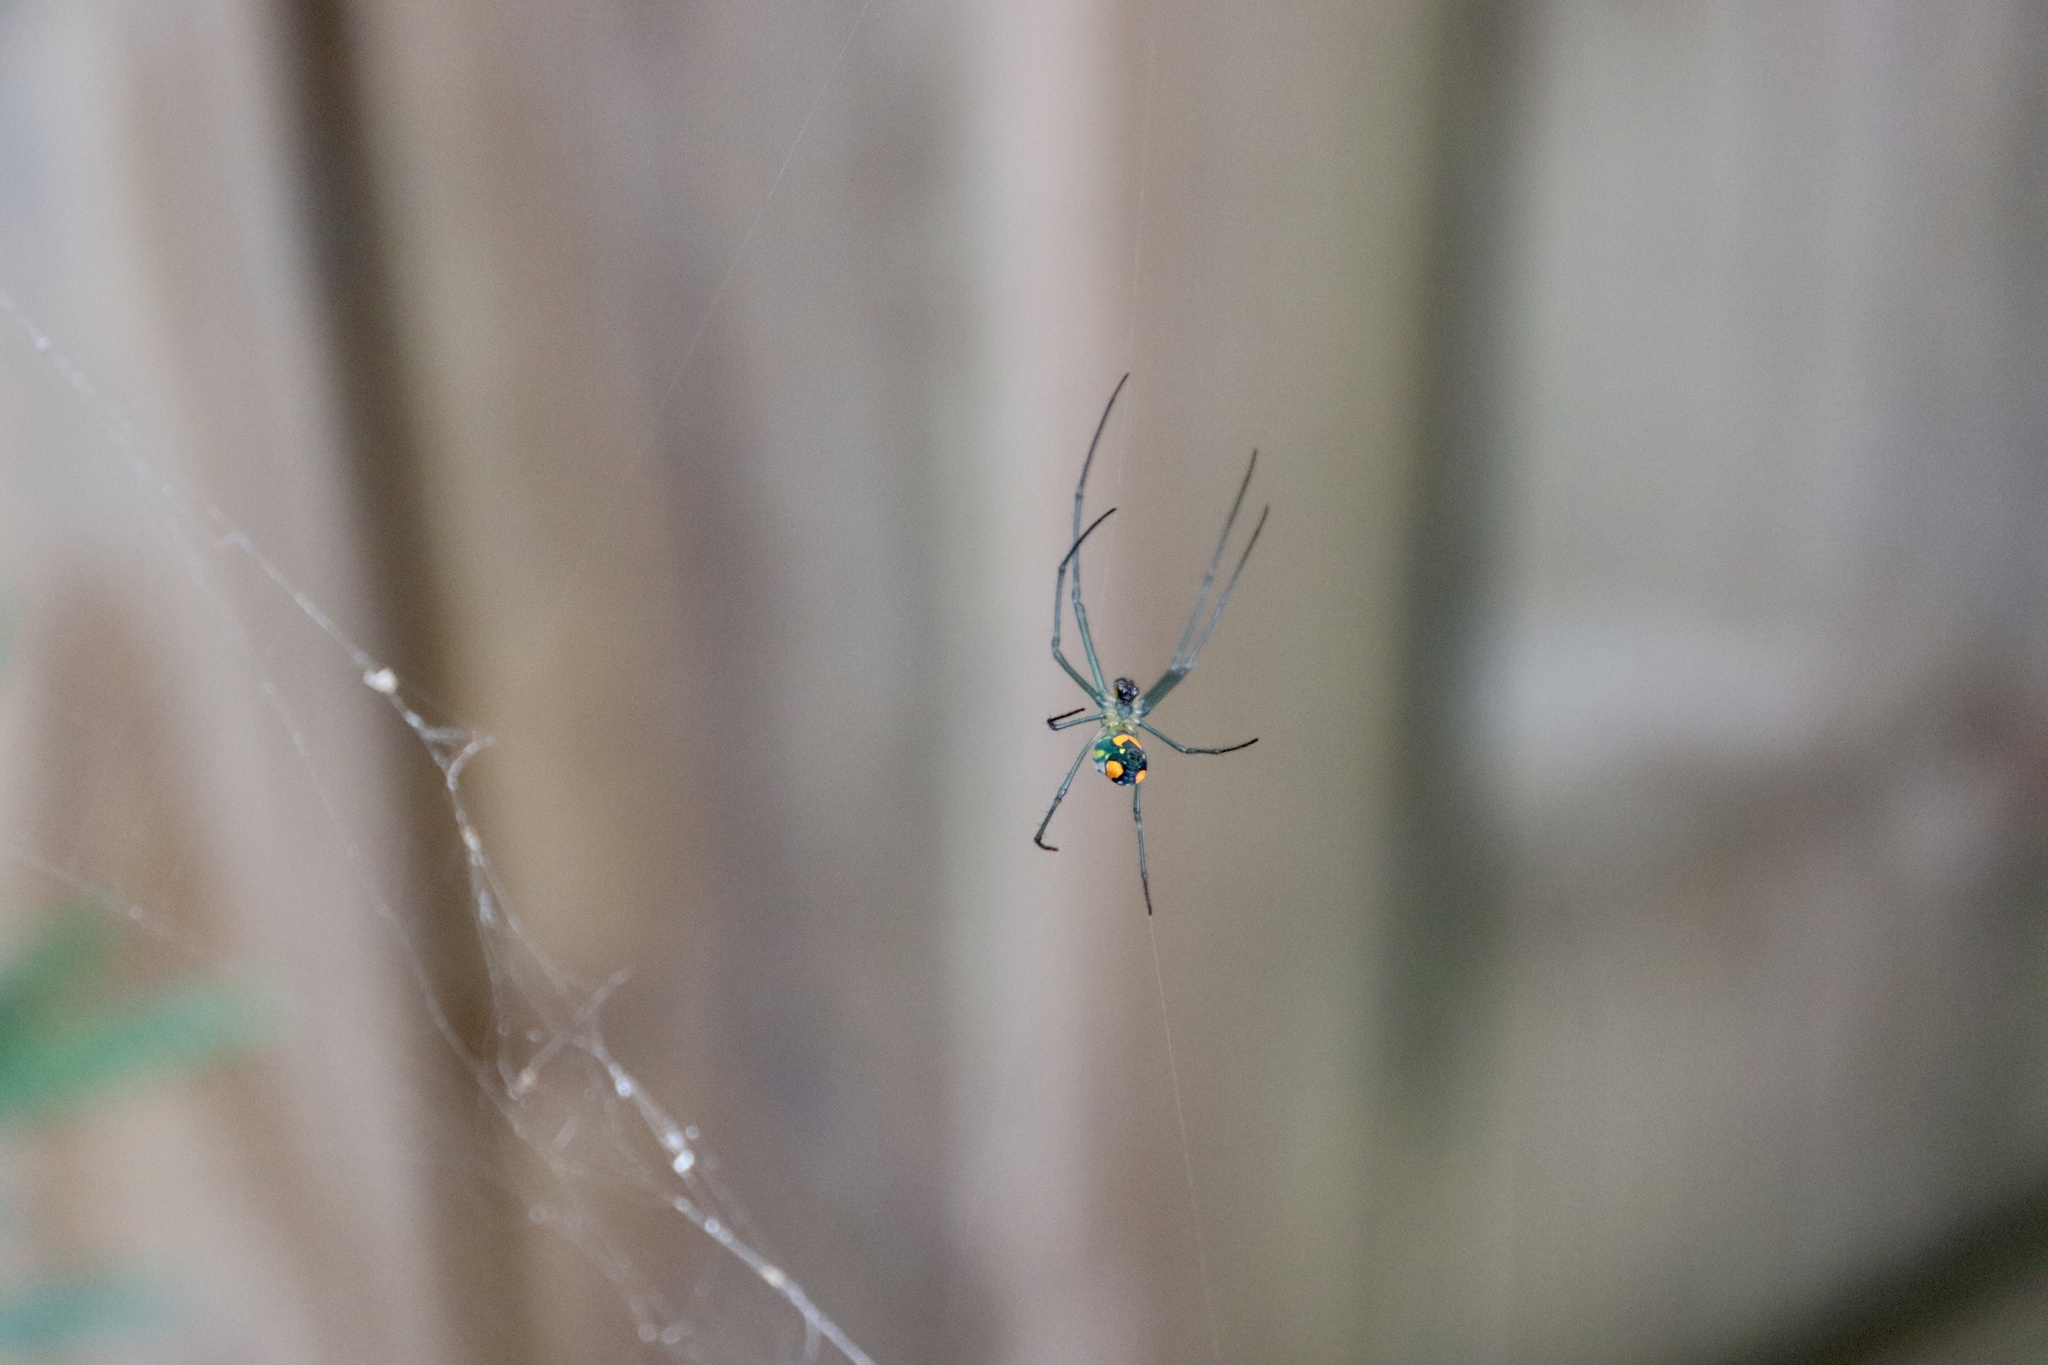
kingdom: Animalia
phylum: Arthropoda
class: Arachnida
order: Araneae
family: Tetragnathidae
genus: Leucauge
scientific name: Leucauge argyrobapta
